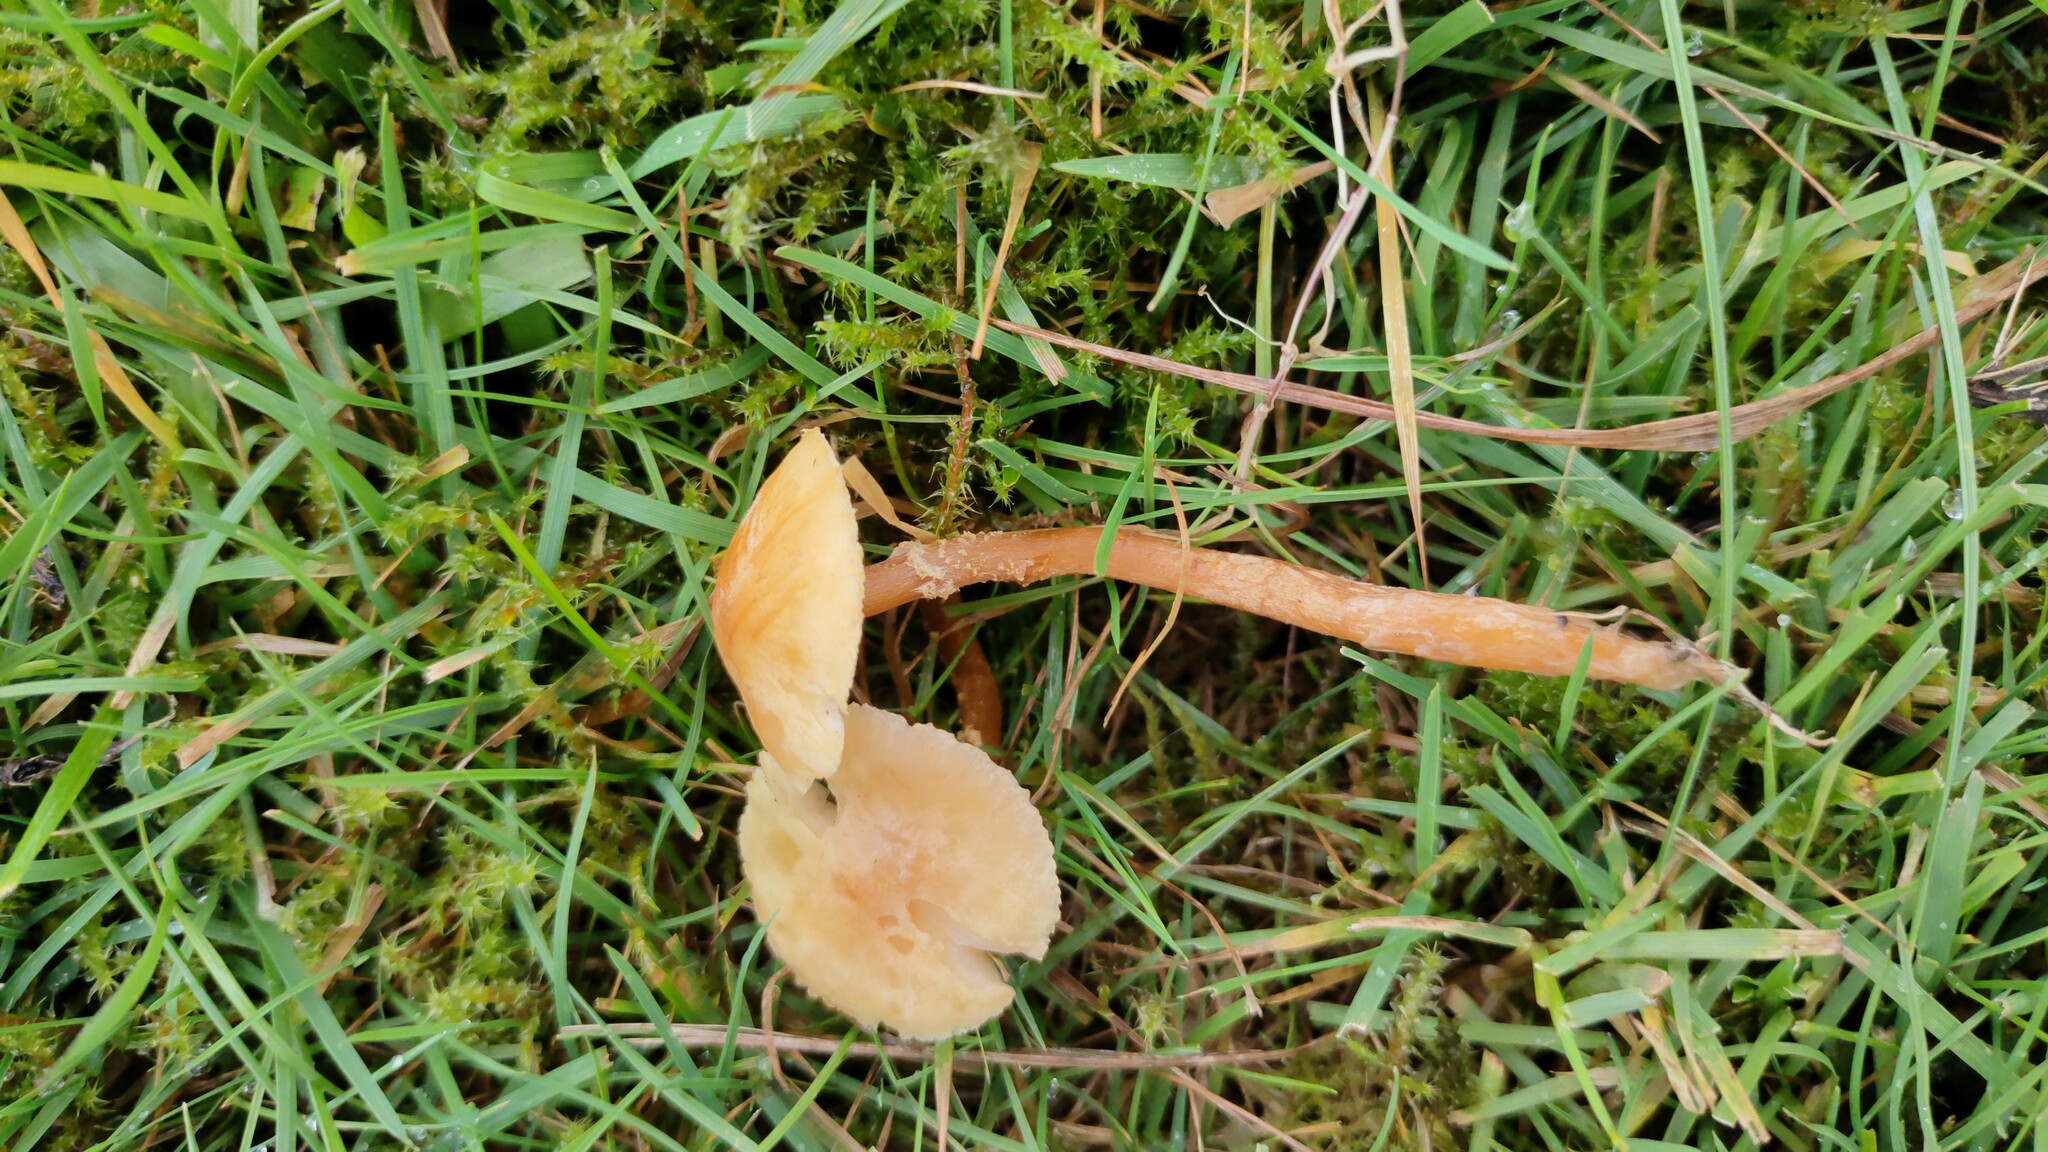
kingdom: Fungi
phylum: Basidiomycota
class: Agaricomycetes
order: Agaricales
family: Tricholomataceae
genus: Cystoderma
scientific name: Cystoderma amianthinum
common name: Earthy powdercap
